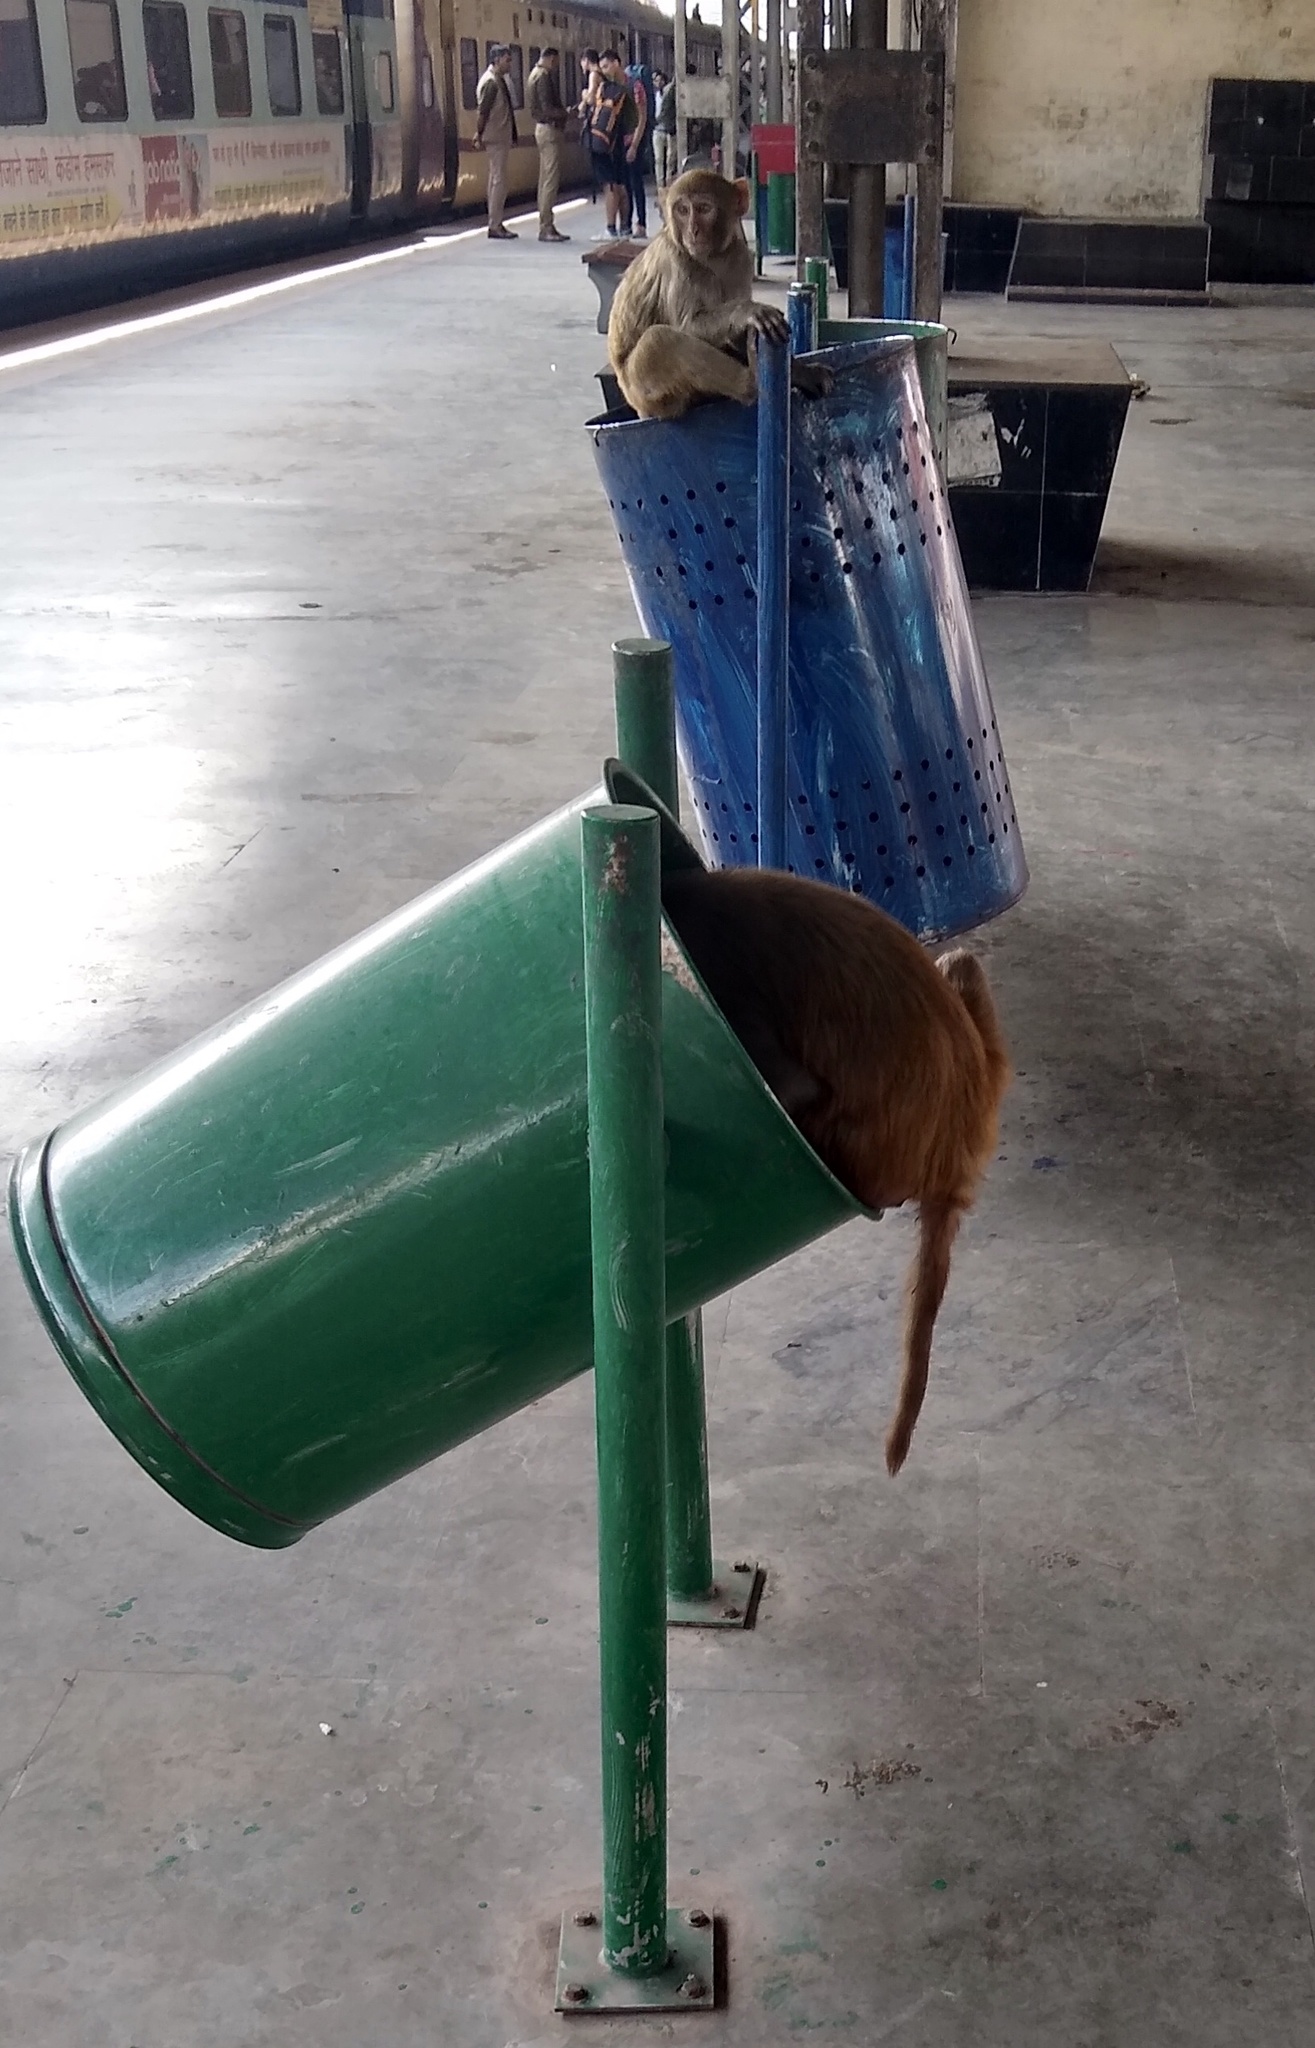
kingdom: Animalia
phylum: Chordata
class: Mammalia
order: Primates
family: Cercopithecidae
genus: Macaca
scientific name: Macaca mulatta
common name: Rhesus monkey
